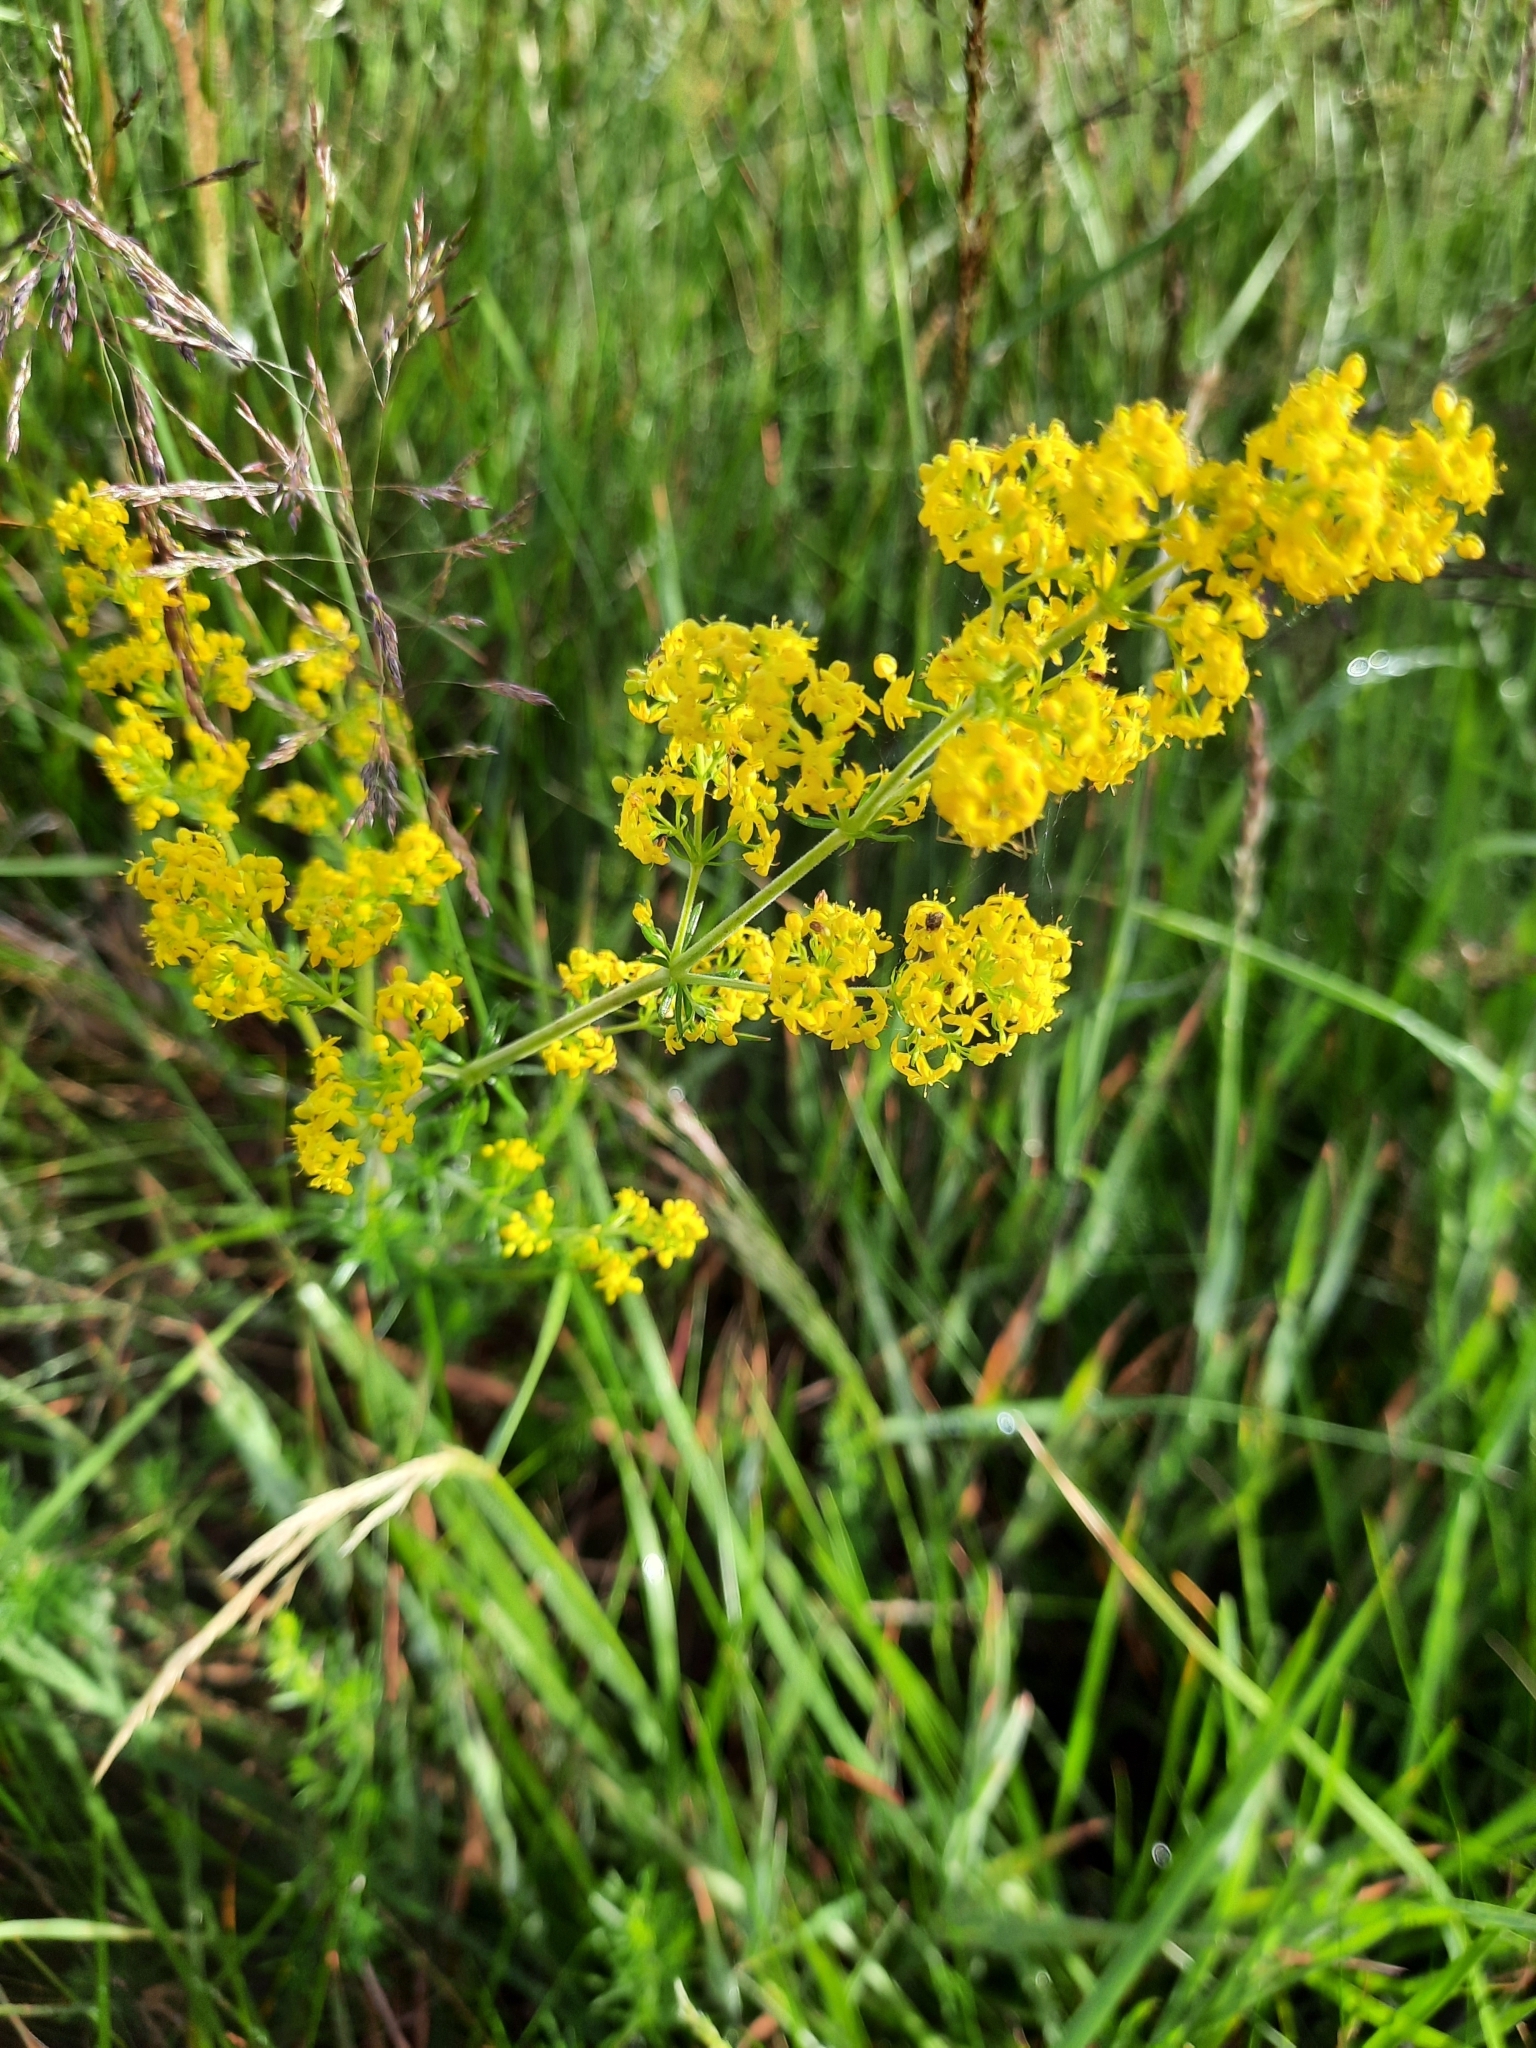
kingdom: Plantae
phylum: Tracheophyta
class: Magnoliopsida
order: Gentianales
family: Rubiaceae
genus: Galium
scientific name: Galium verum
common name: Lady's bedstraw
